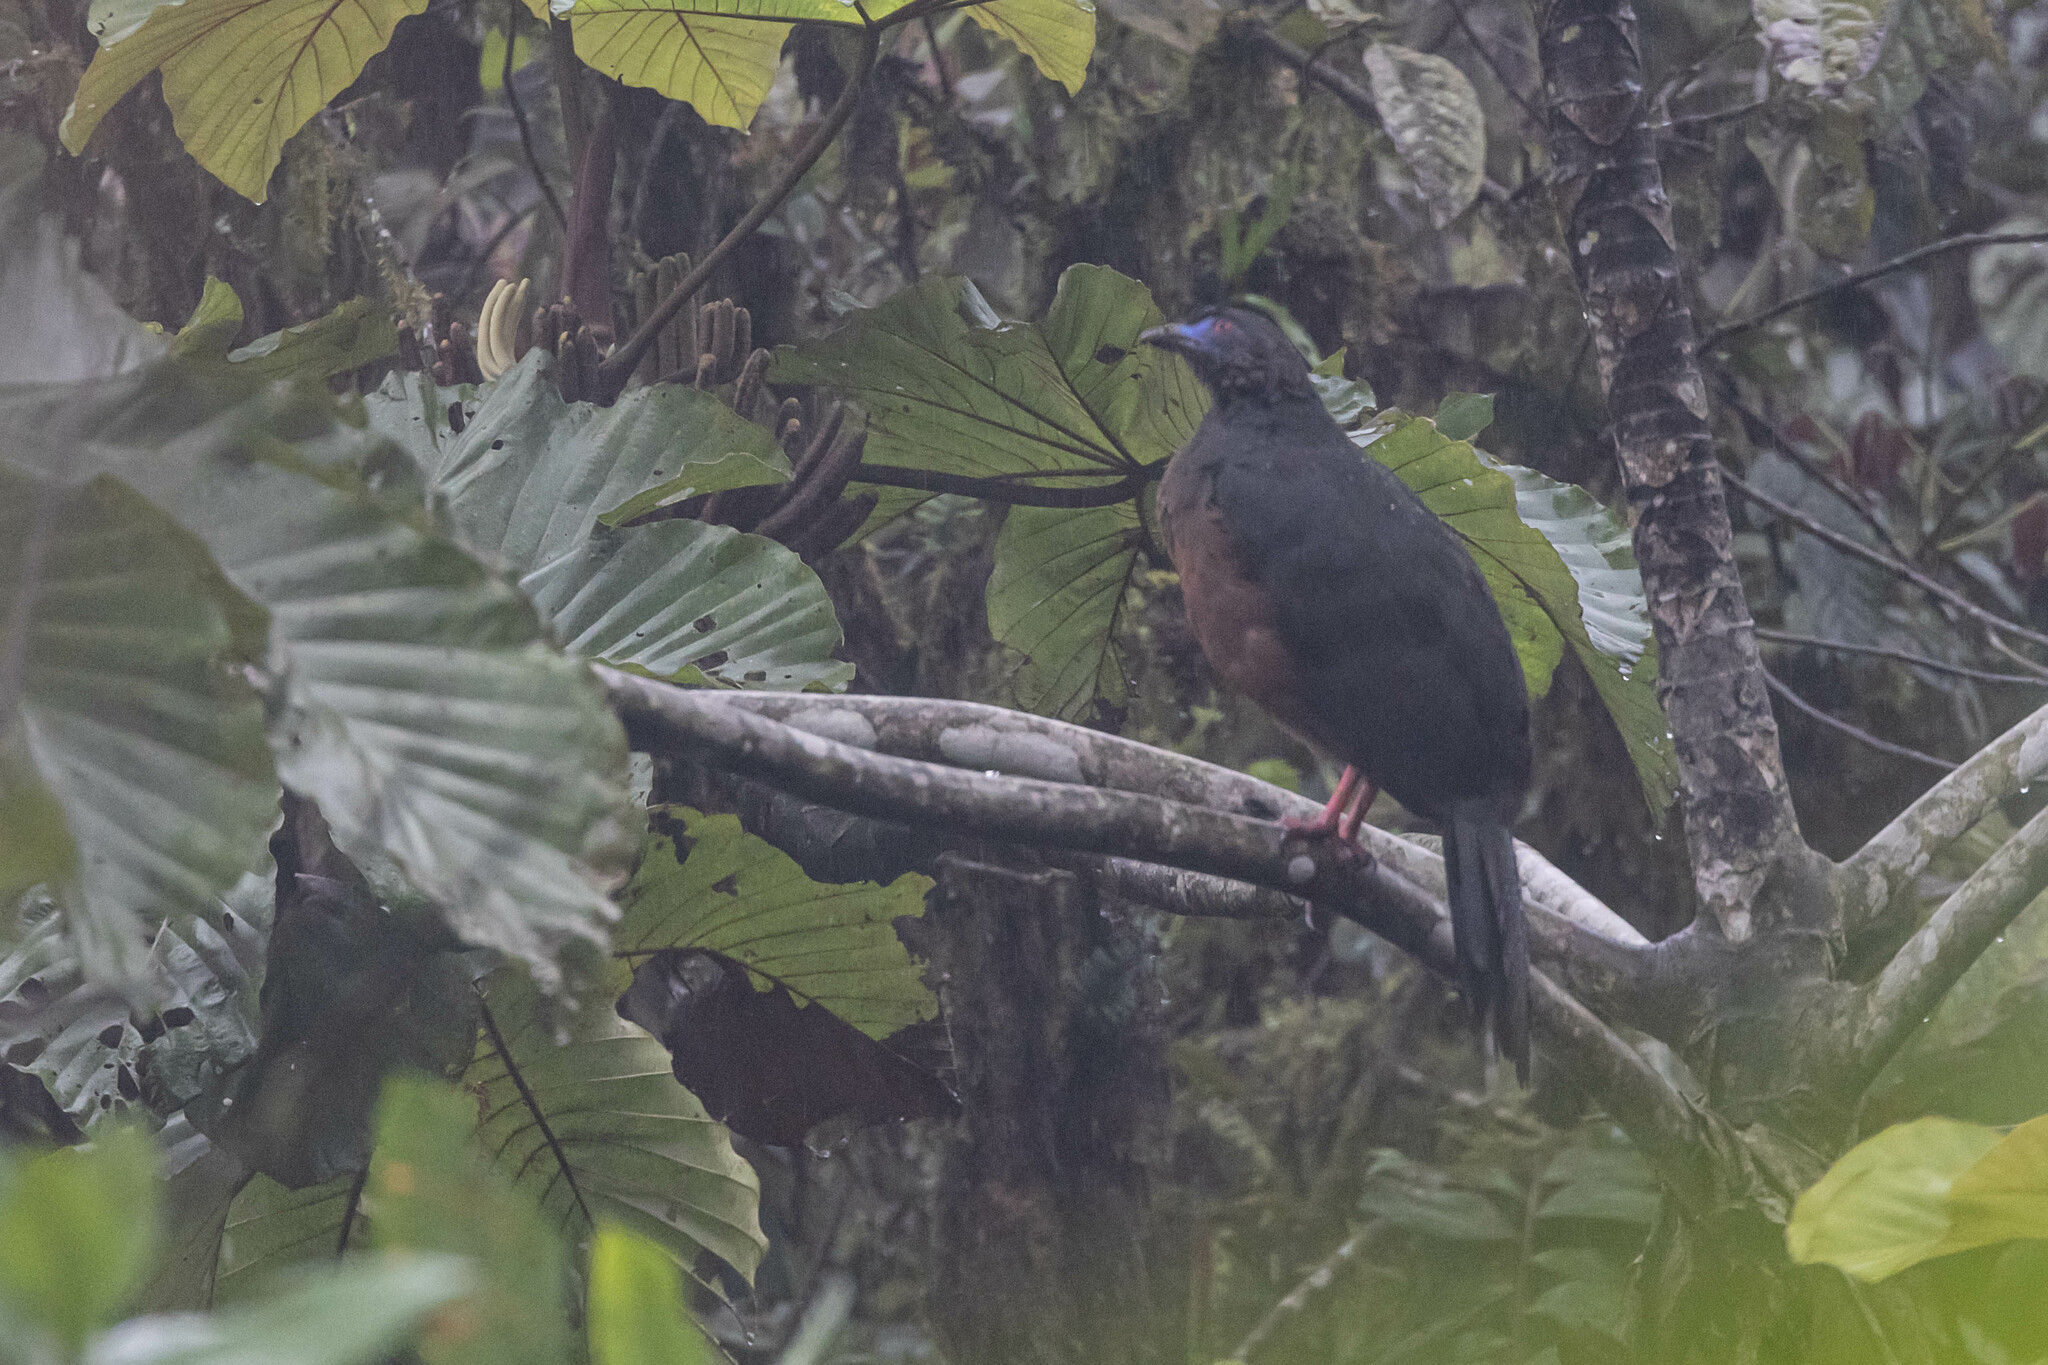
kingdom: Animalia
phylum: Chordata
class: Aves
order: Galliformes
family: Cracidae
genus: Chamaepetes
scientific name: Chamaepetes goudotii
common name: Sickle-winged guan
